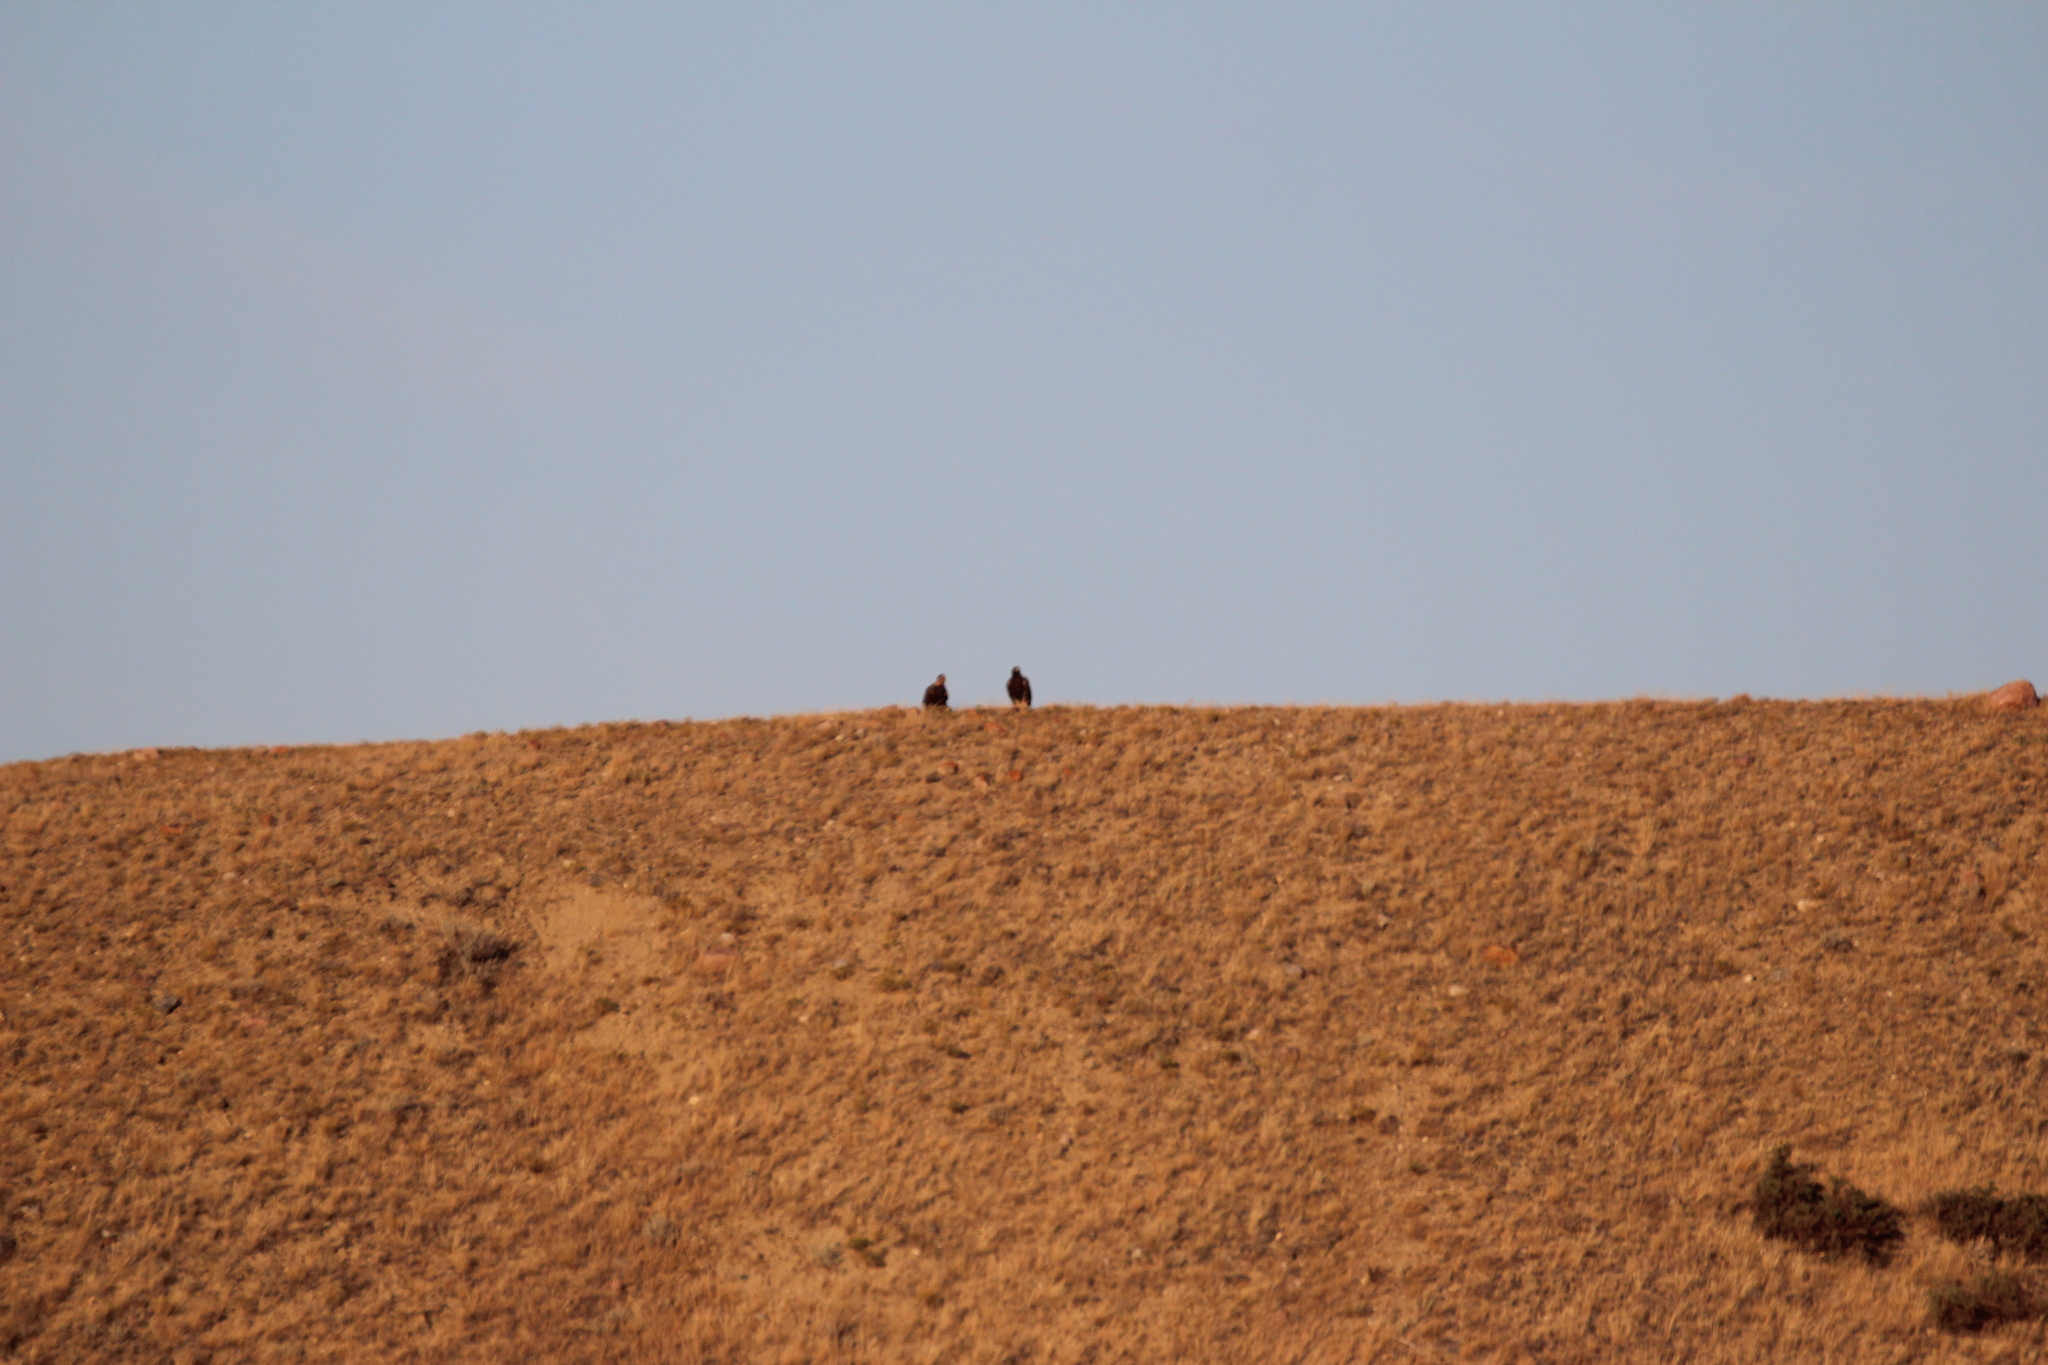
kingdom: Animalia
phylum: Chordata
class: Aves
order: Accipitriformes
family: Accipitridae
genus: Aquila
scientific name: Aquila chrysaetos
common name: Golden eagle
